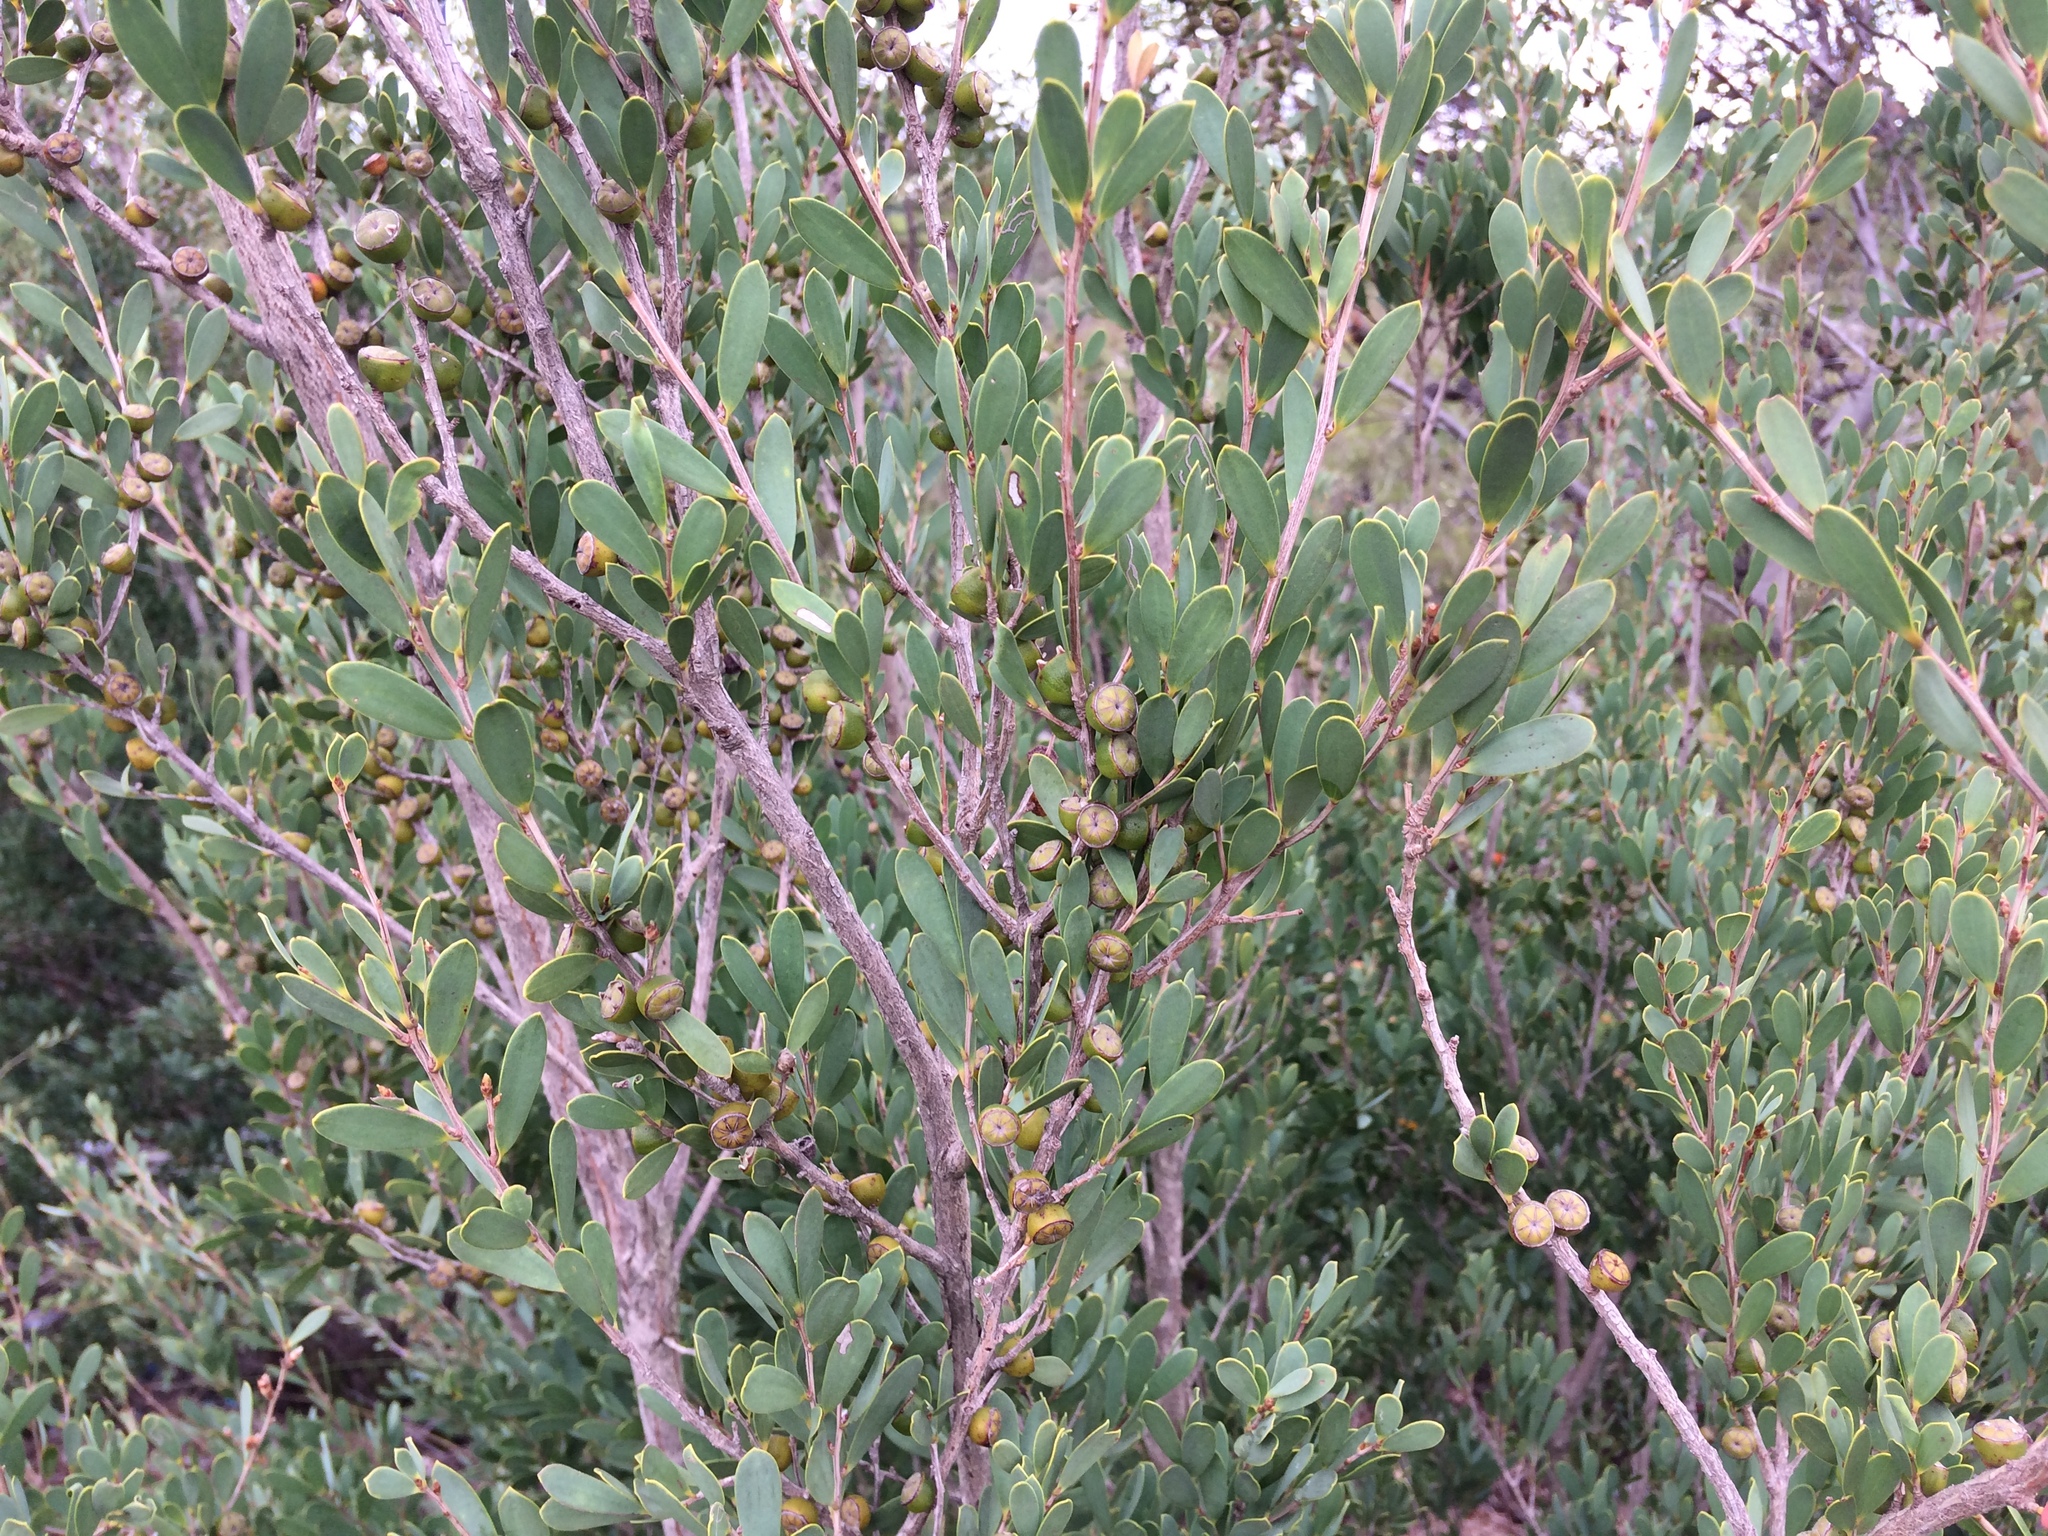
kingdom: Plantae
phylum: Tracheophyta
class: Magnoliopsida
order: Myrtales
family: Myrtaceae
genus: Leptospermum
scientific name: Leptospermum laevigatum
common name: Australian teatree
